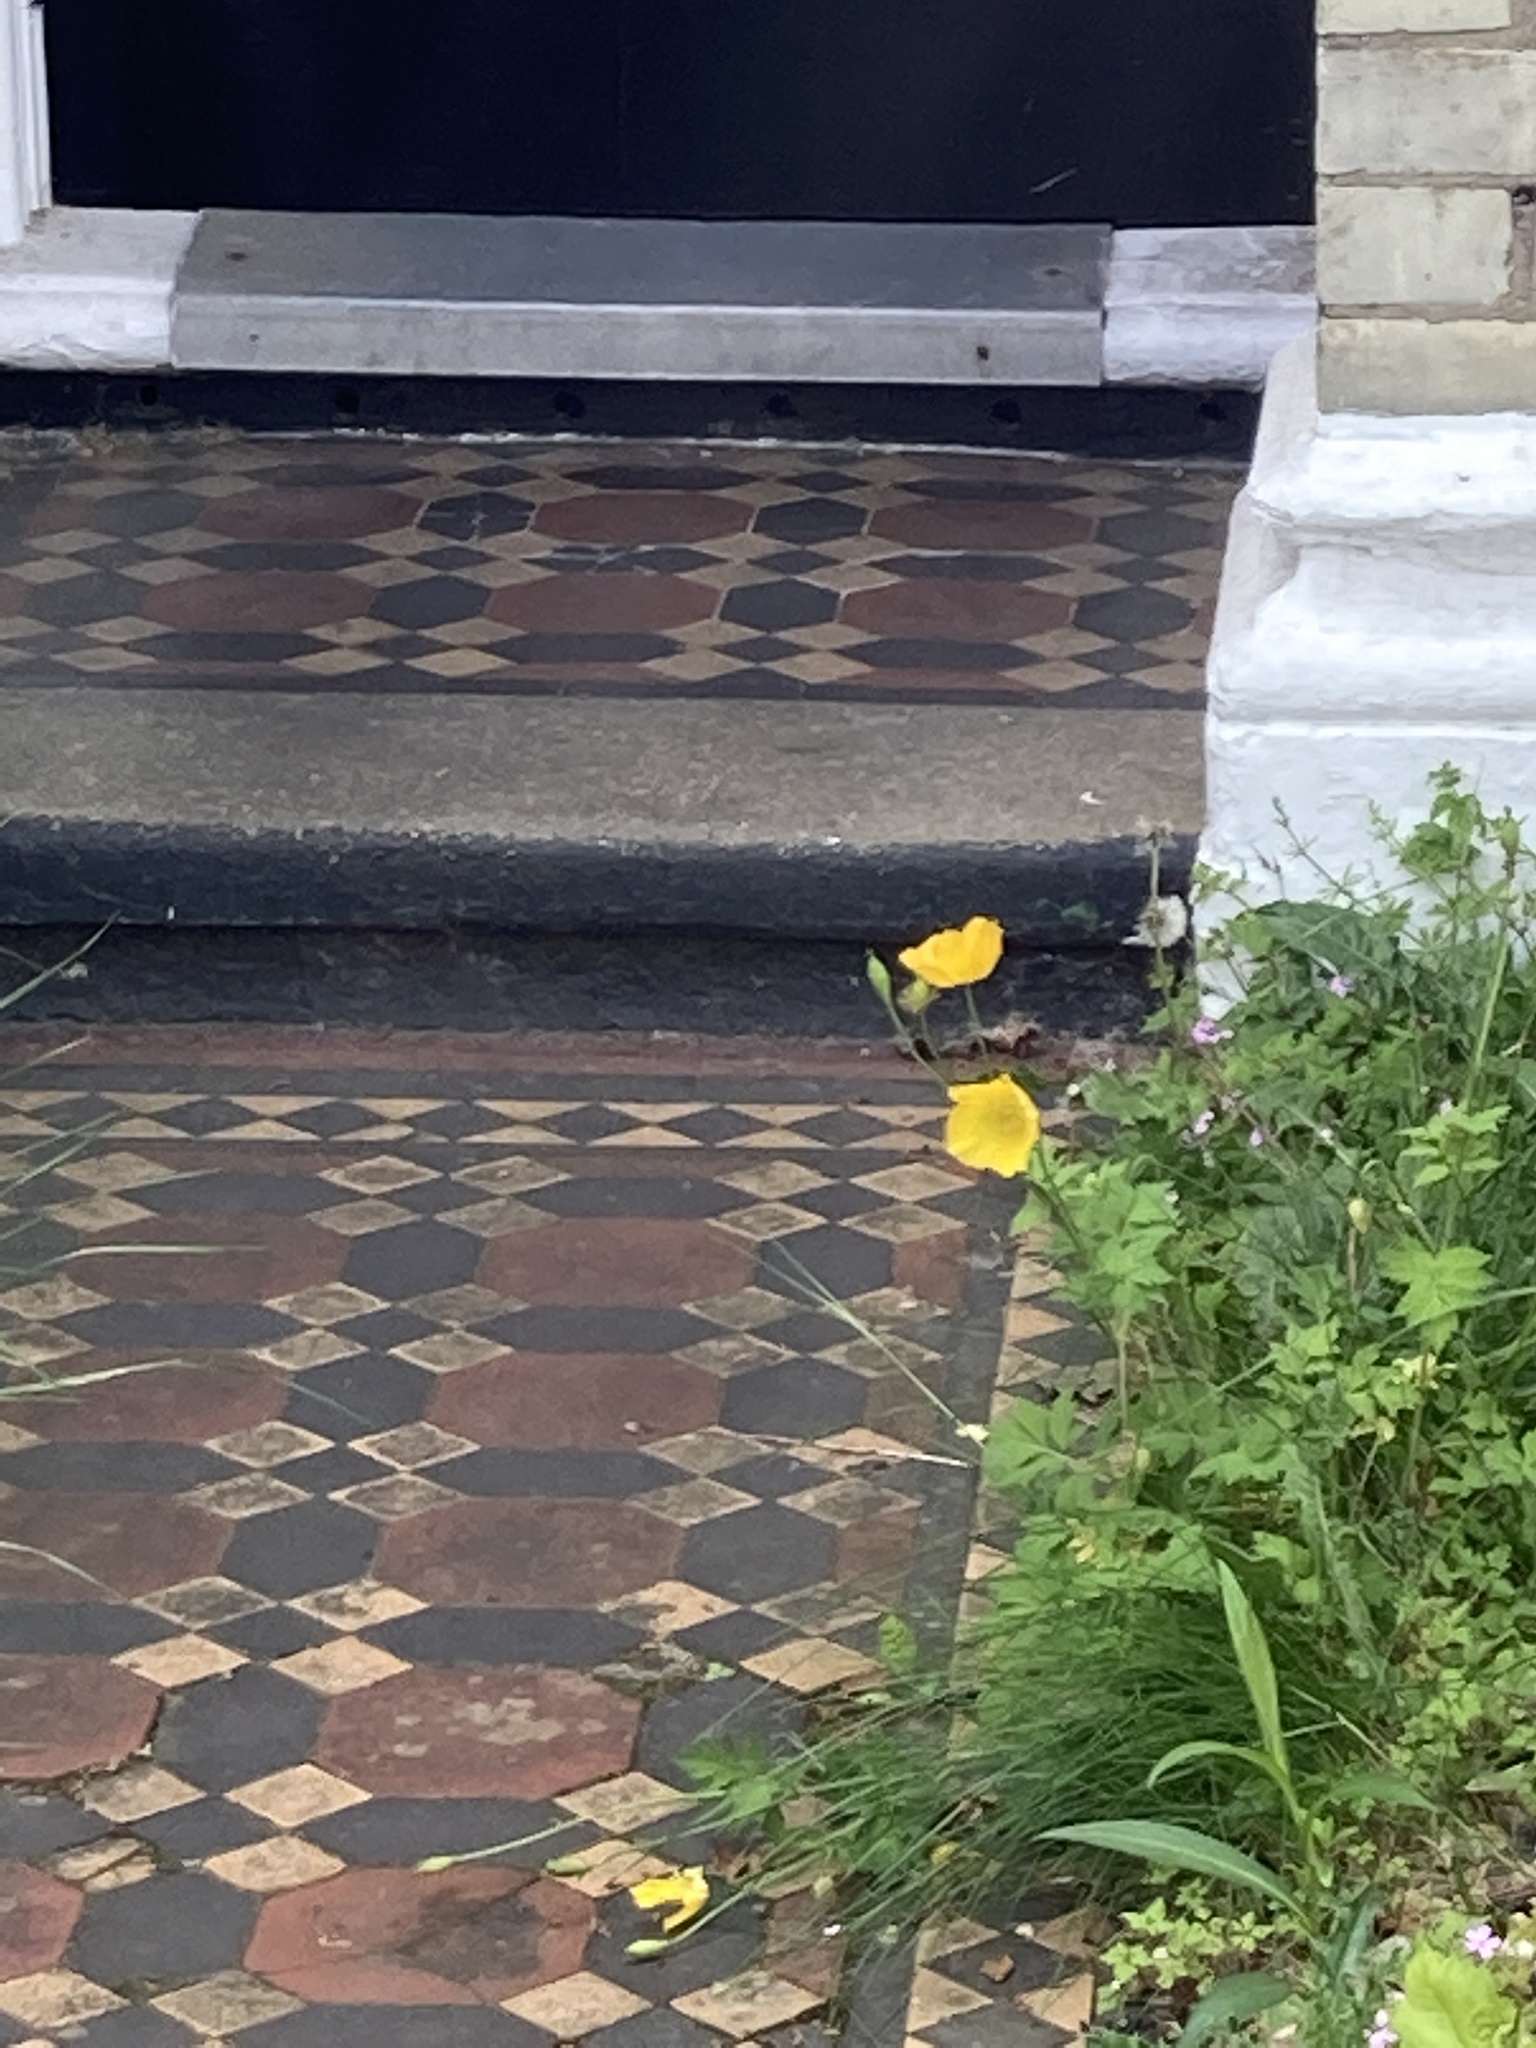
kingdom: Plantae
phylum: Tracheophyta
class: Magnoliopsida
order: Ranunculales
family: Papaveraceae
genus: Papaver
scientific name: Papaver cambricum
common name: Poppy
